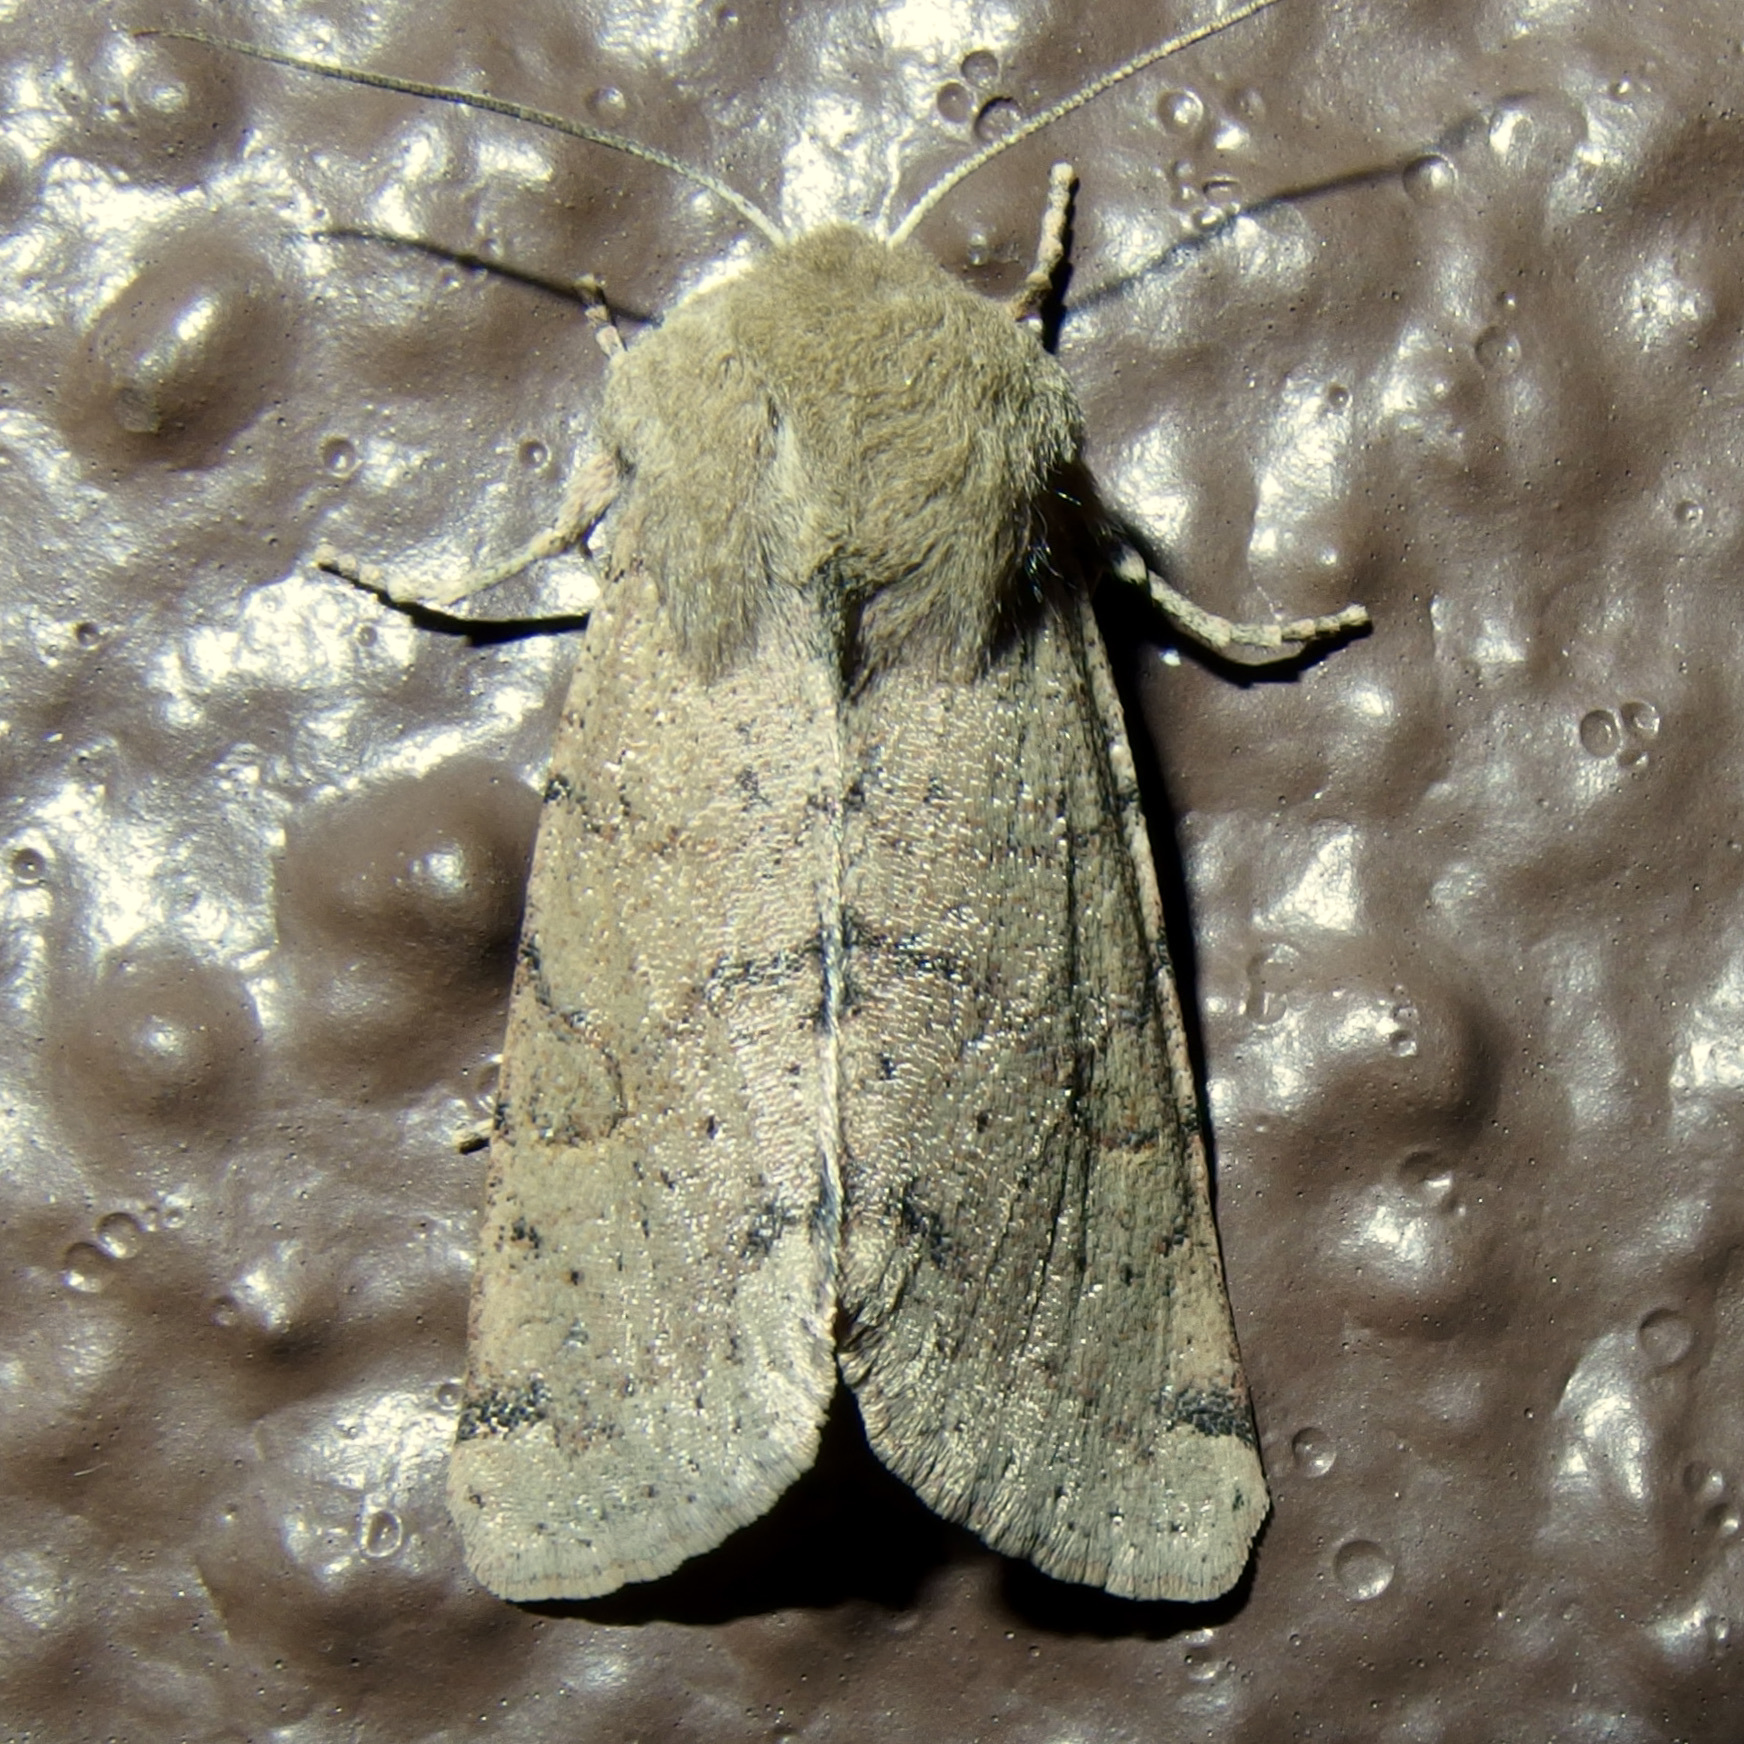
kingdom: Animalia
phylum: Arthropoda
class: Insecta
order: Lepidoptera
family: Noctuidae
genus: Orthosia
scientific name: Orthosia annulimacula
